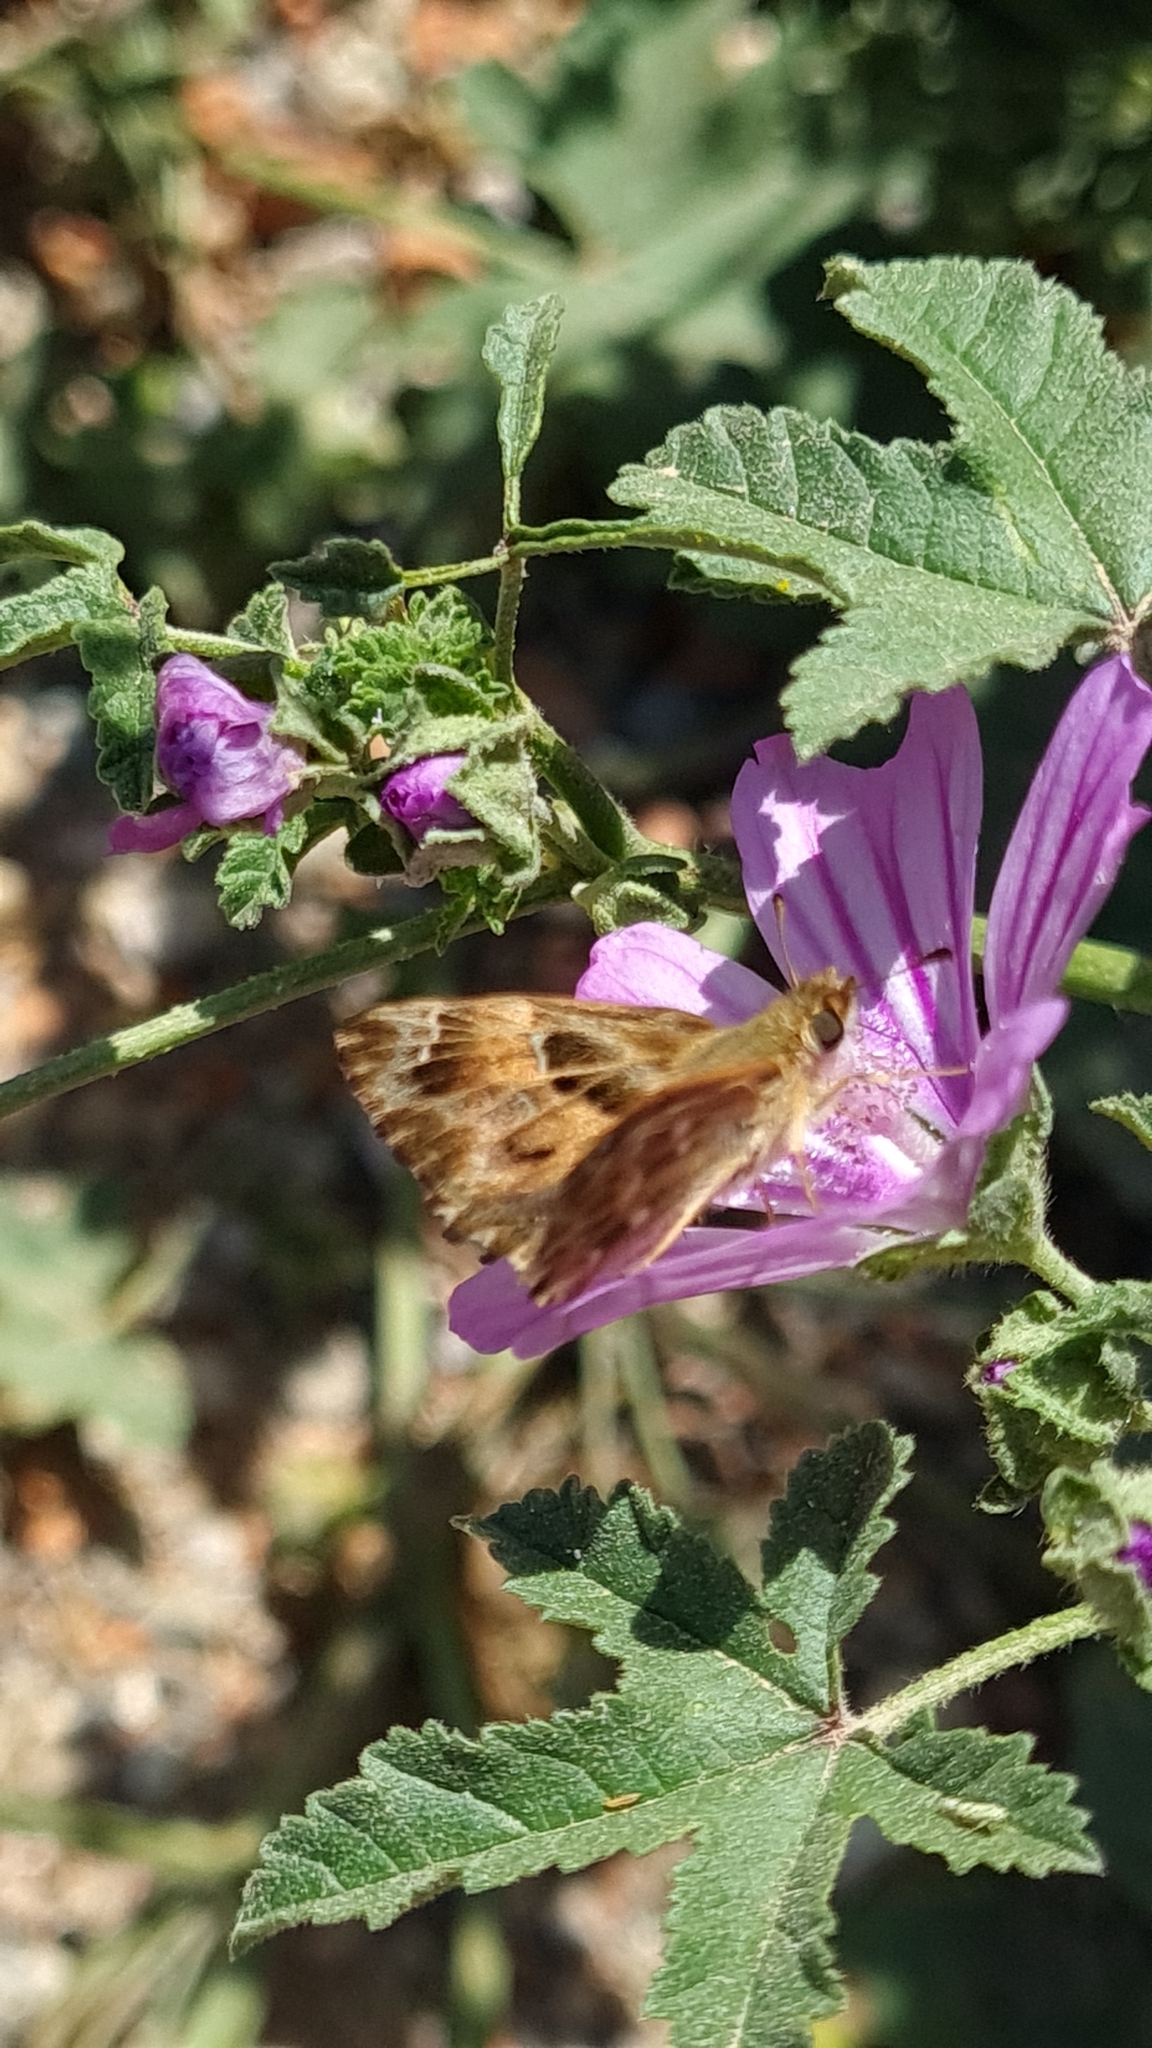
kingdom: Animalia
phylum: Arthropoda
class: Insecta
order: Lepidoptera
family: Hesperiidae
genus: Carcharodus
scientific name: Carcharodus alceae
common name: Mallow skipper
